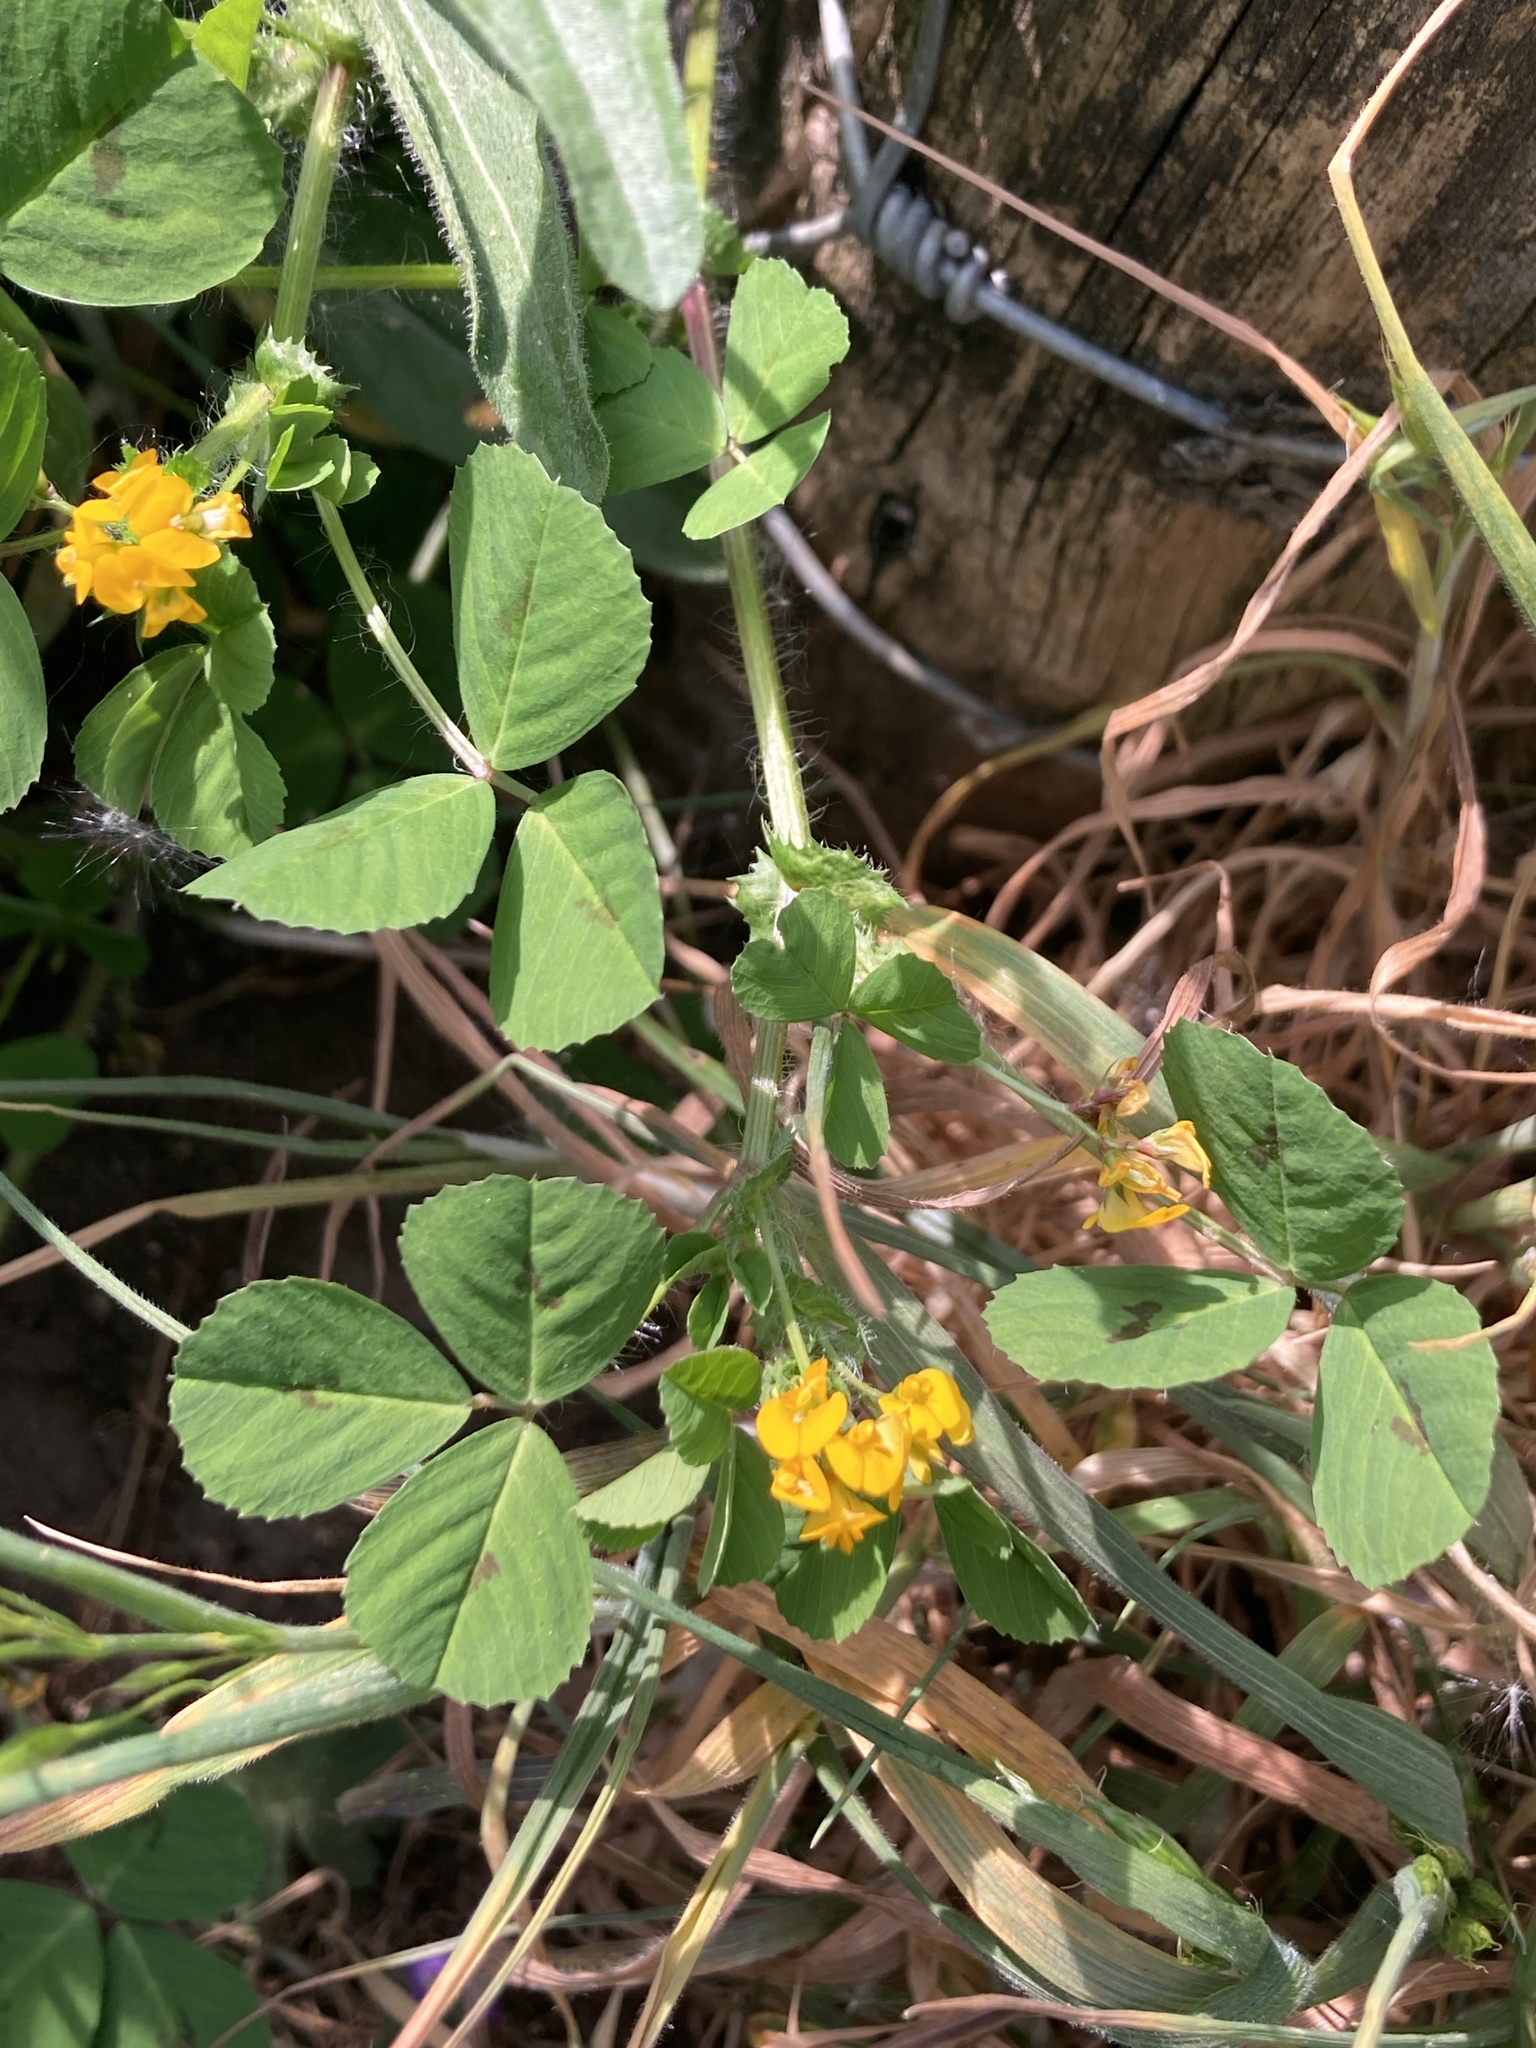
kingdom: Plantae
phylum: Tracheophyta
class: Magnoliopsida
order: Fabales
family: Fabaceae
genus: Medicago
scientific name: Medicago arabica
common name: Spotted medick
